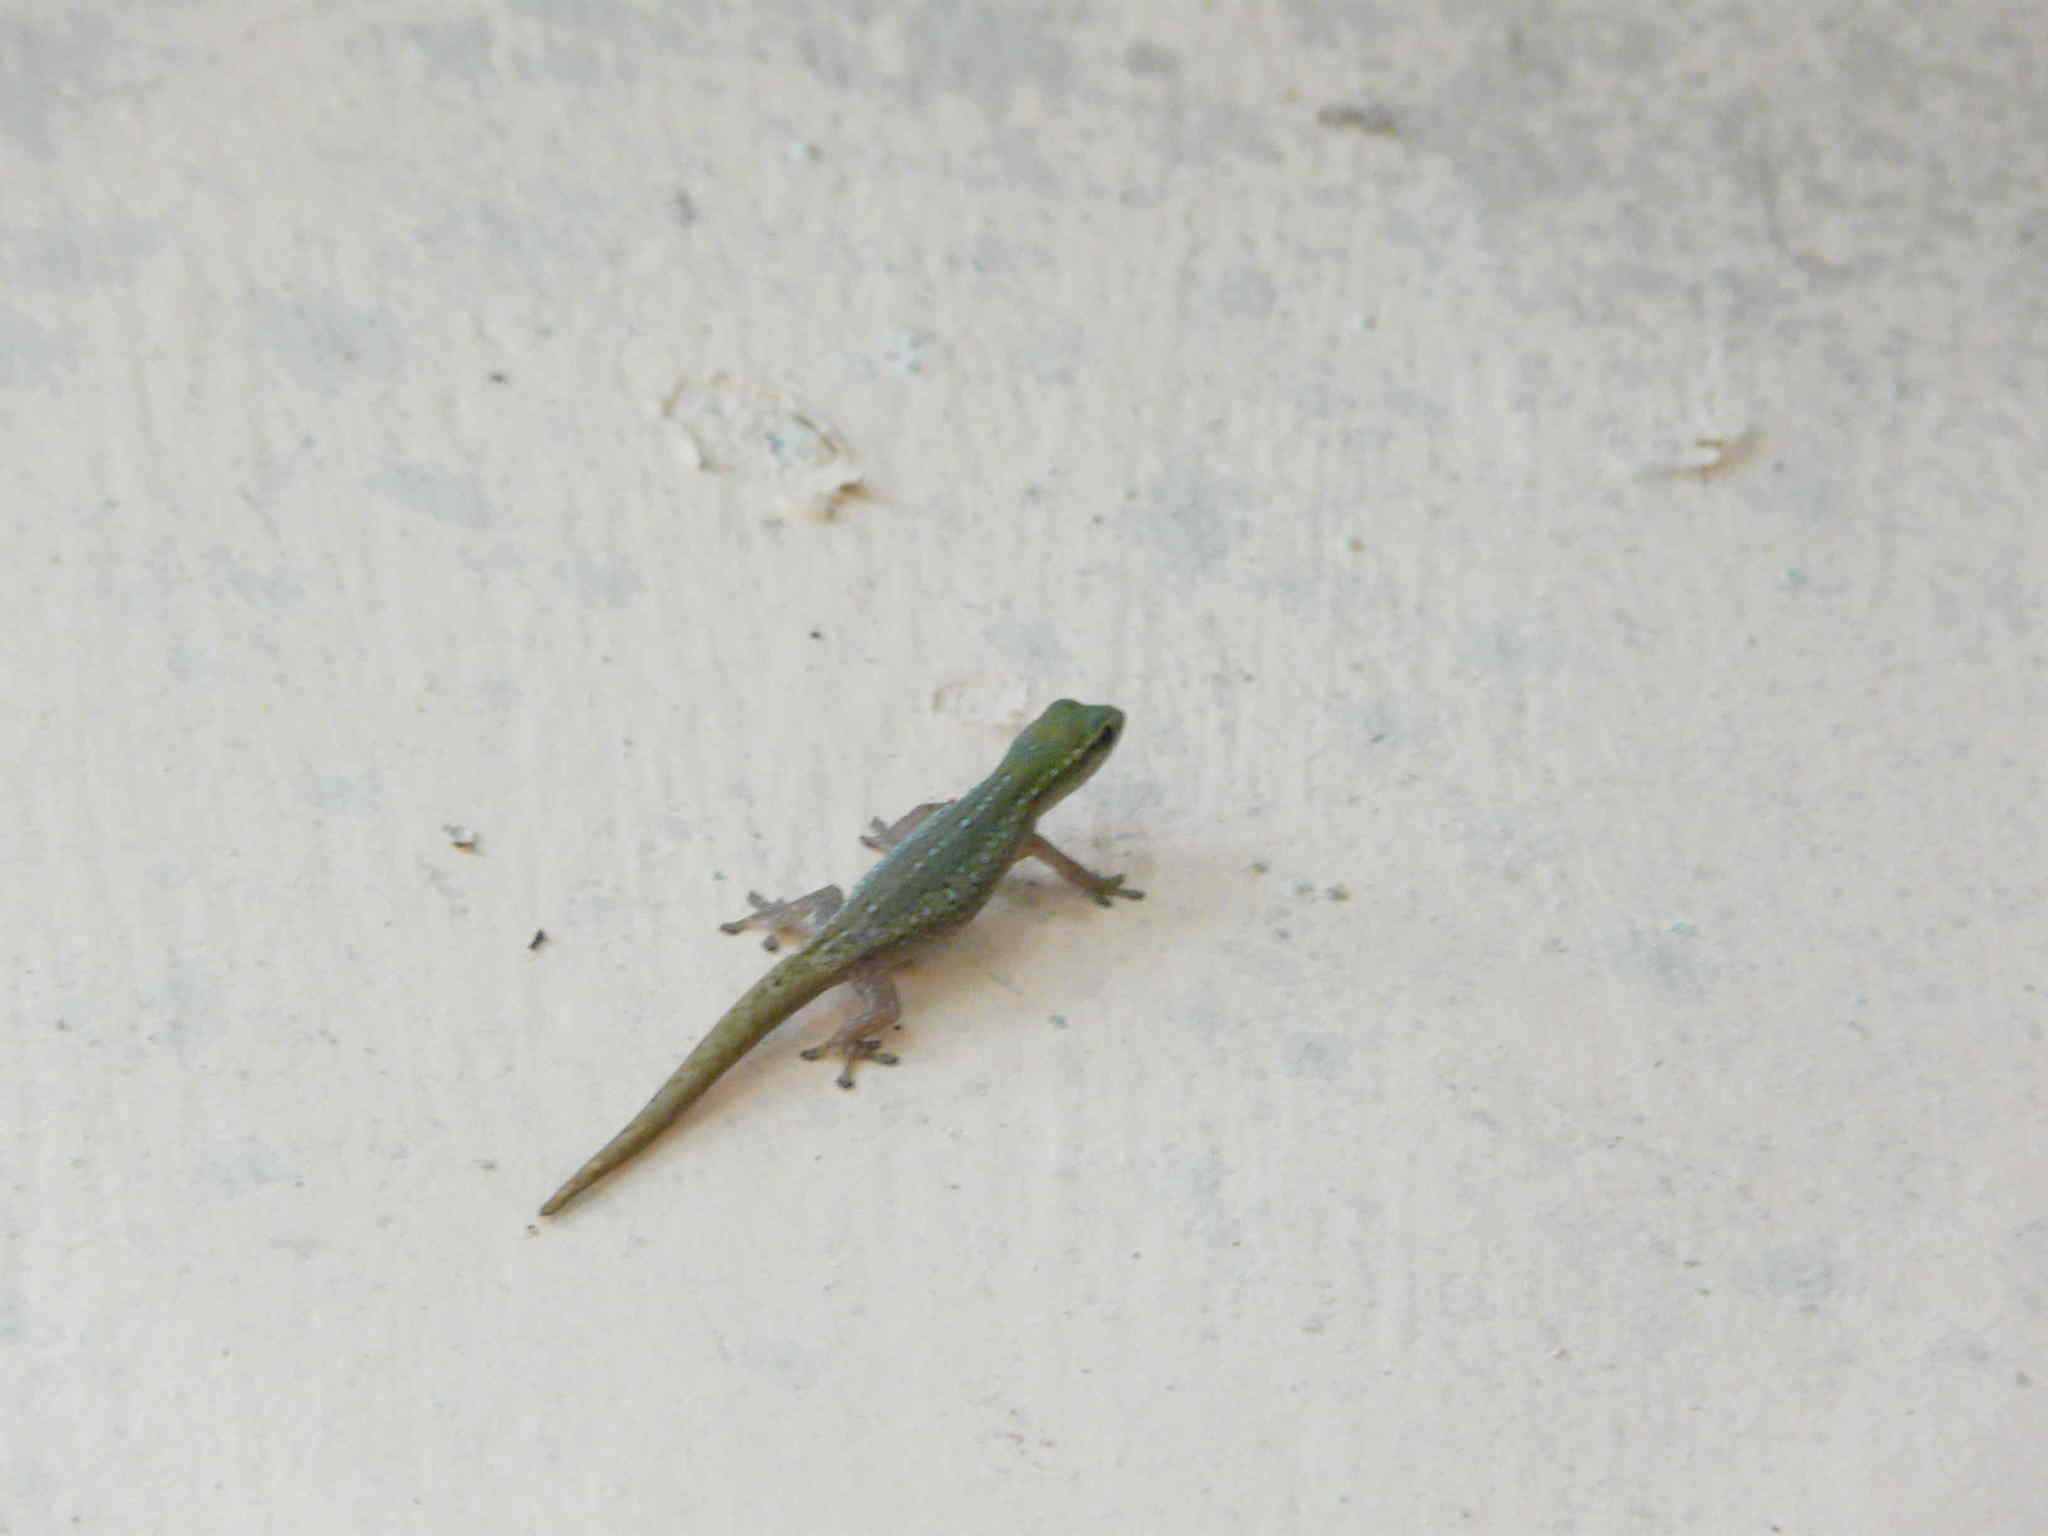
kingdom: Animalia
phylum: Chordata
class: Squamata
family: Gekkonidae
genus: Lygodactylus
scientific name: Lygodactylus conraui
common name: Cameroon dwarf gecko
